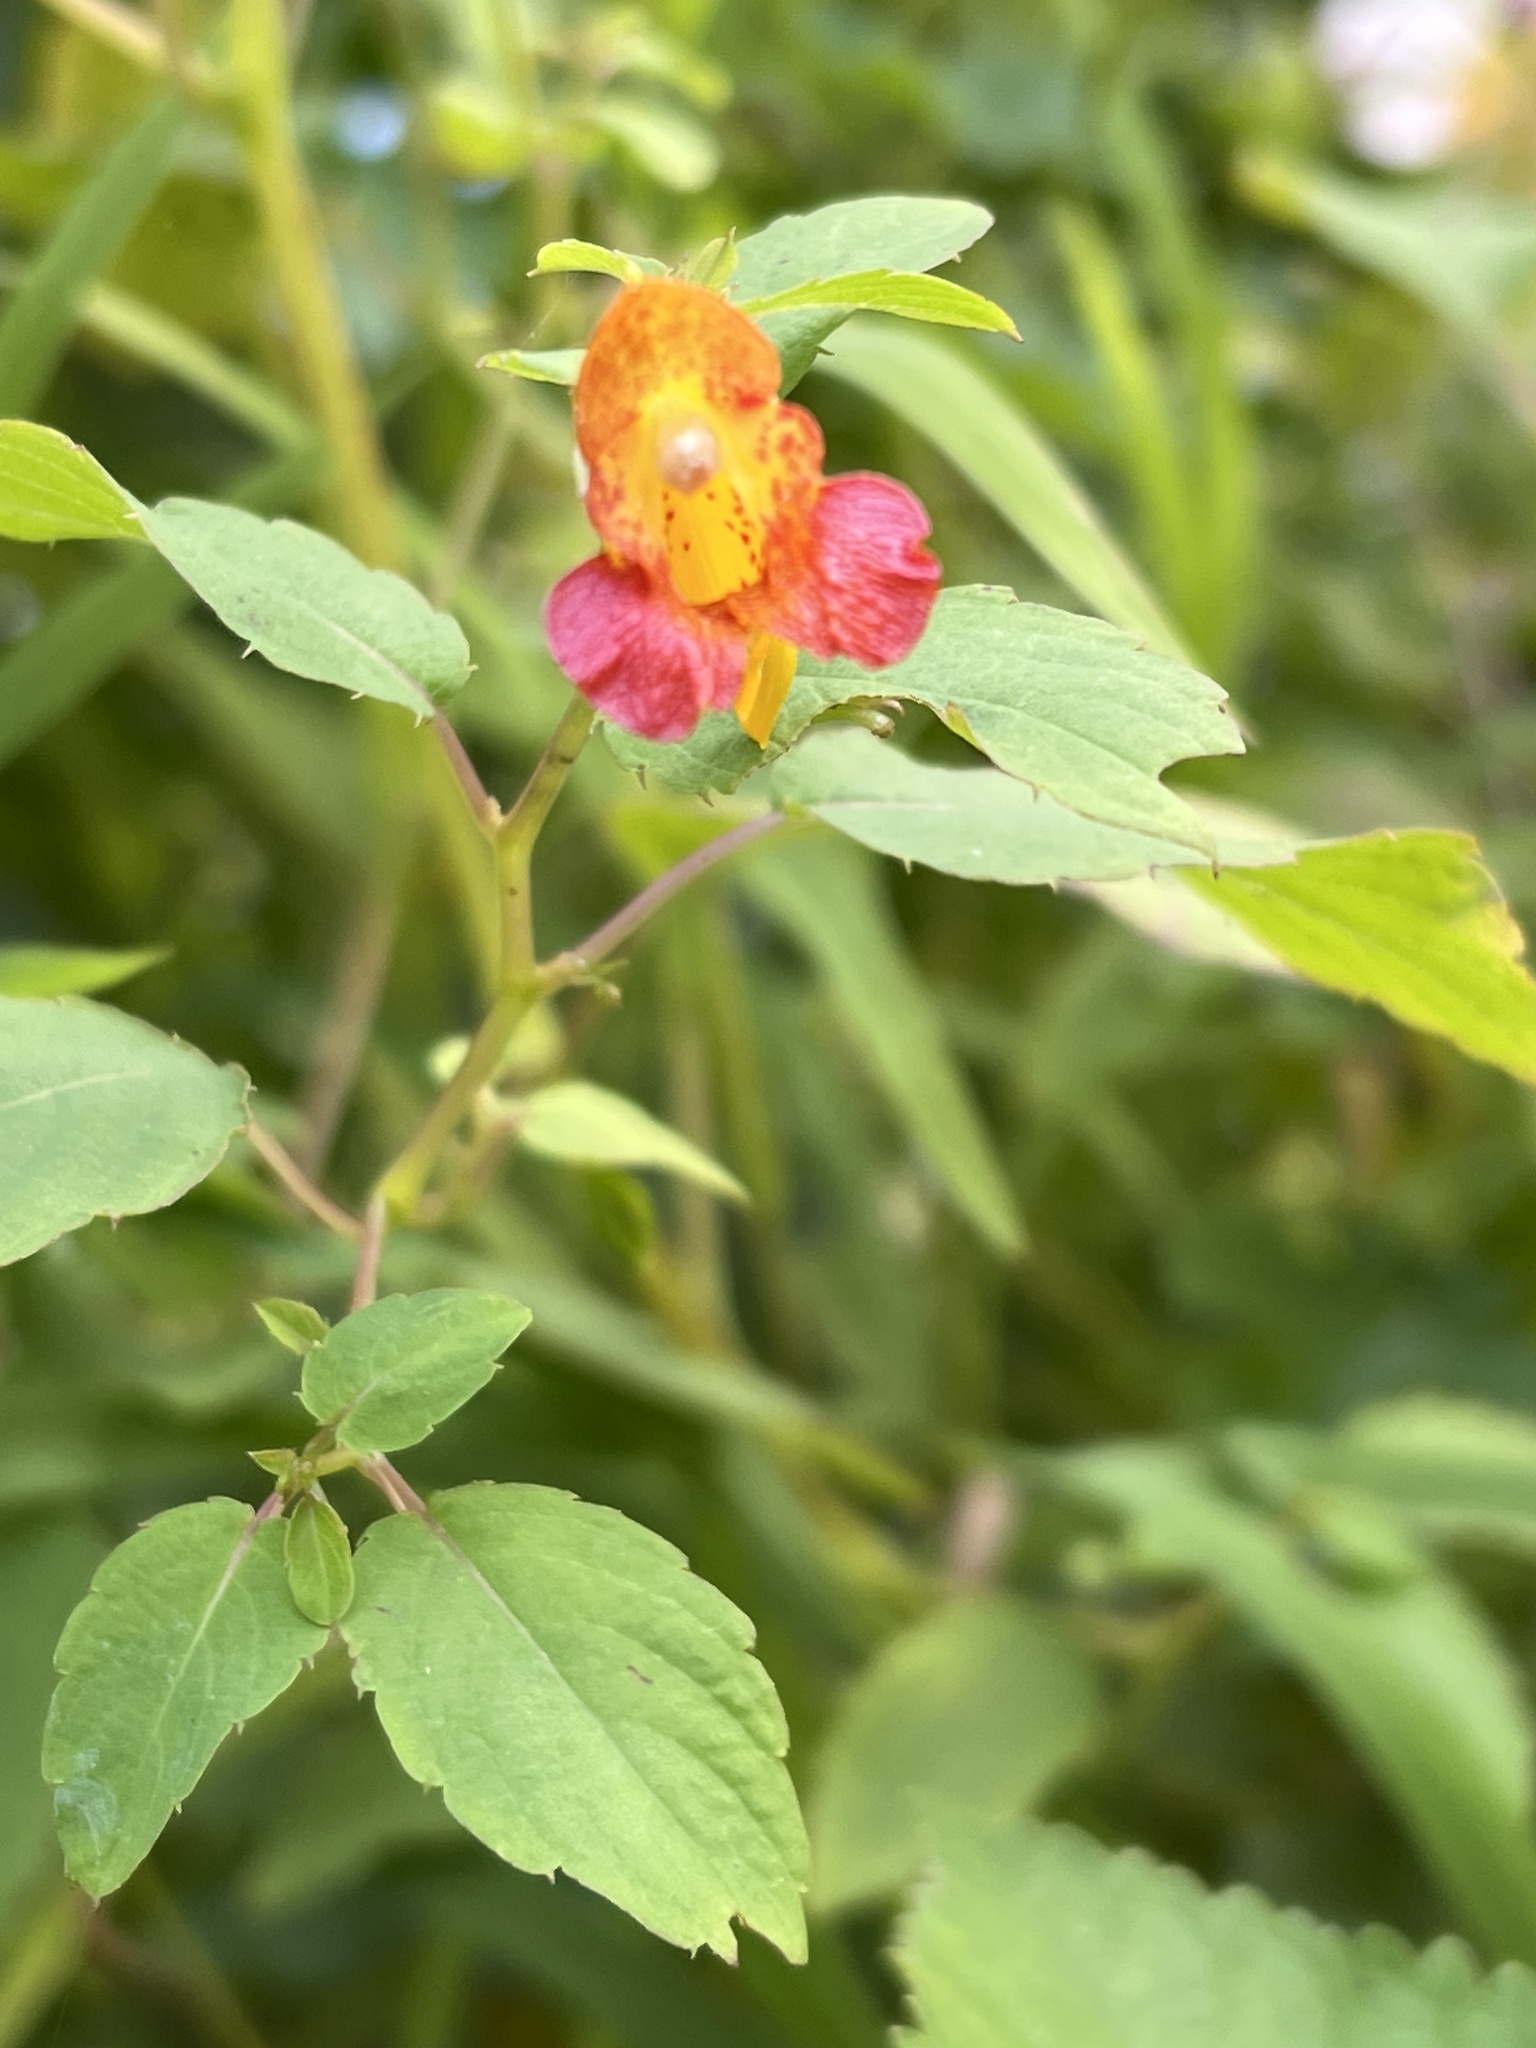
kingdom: Plantae
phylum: Tracheophyta
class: Magnoliopsida
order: Ericales
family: Balsaminaceae
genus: Impatiens
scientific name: Impatiens capensis
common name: Orange balsam
